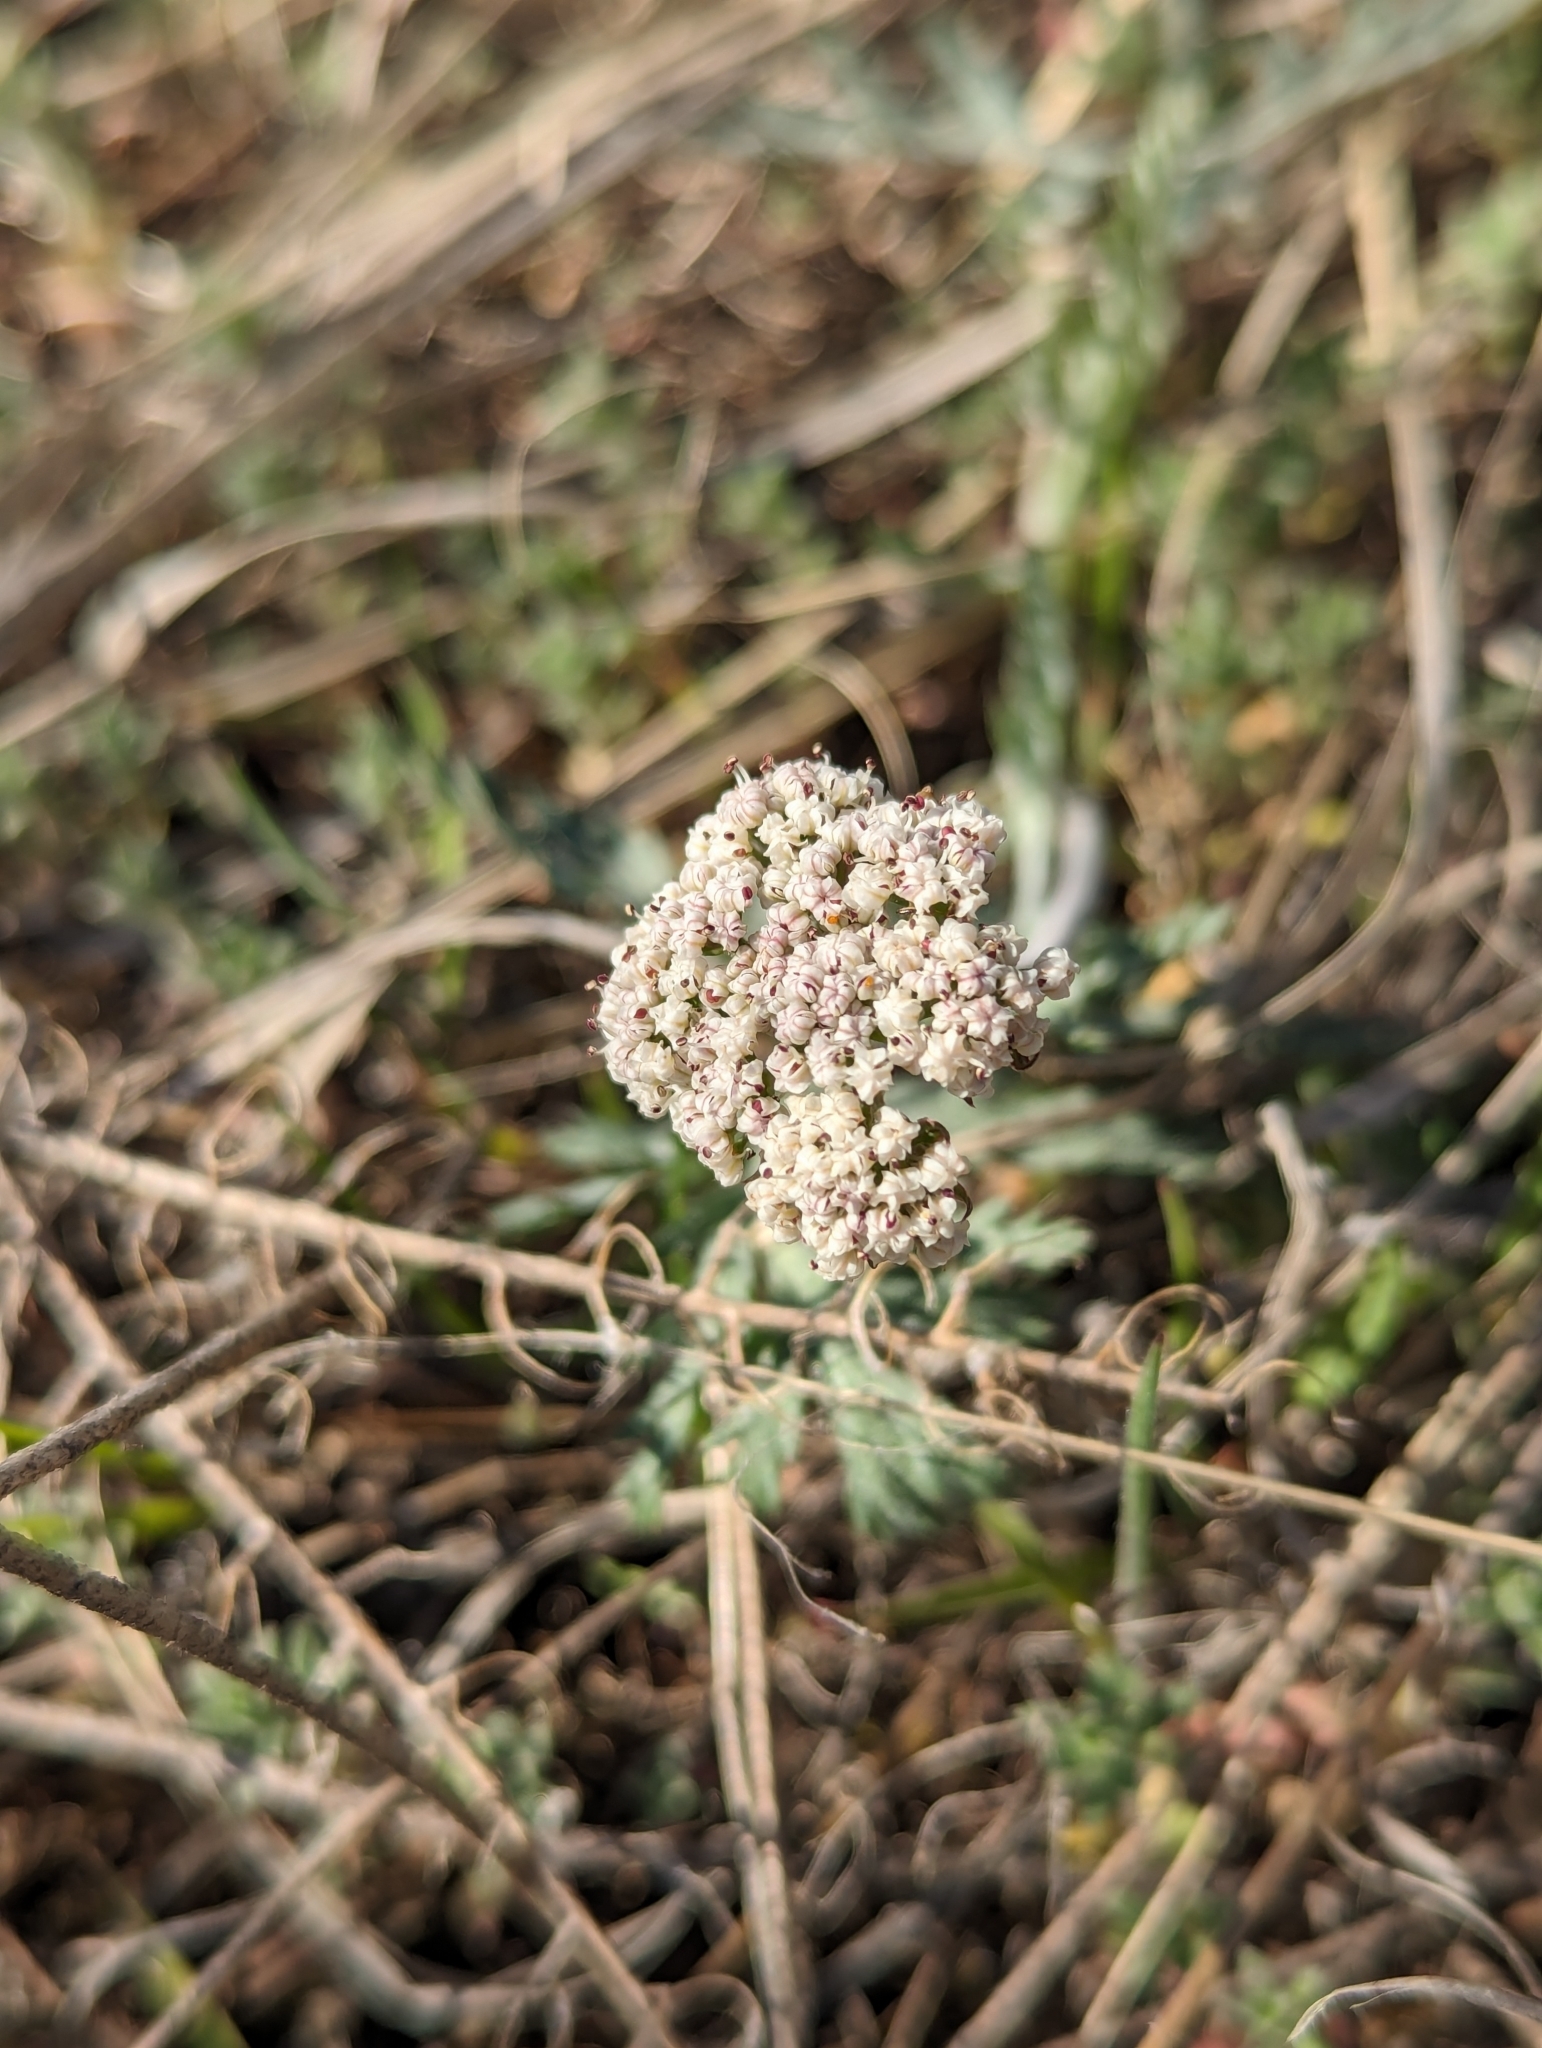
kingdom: Plantae
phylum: Tracheophyta
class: Magnoliopsida
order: Apiales
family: Apiaceae
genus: Lomatium
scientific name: Lomatium orientale
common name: Eastern cous
